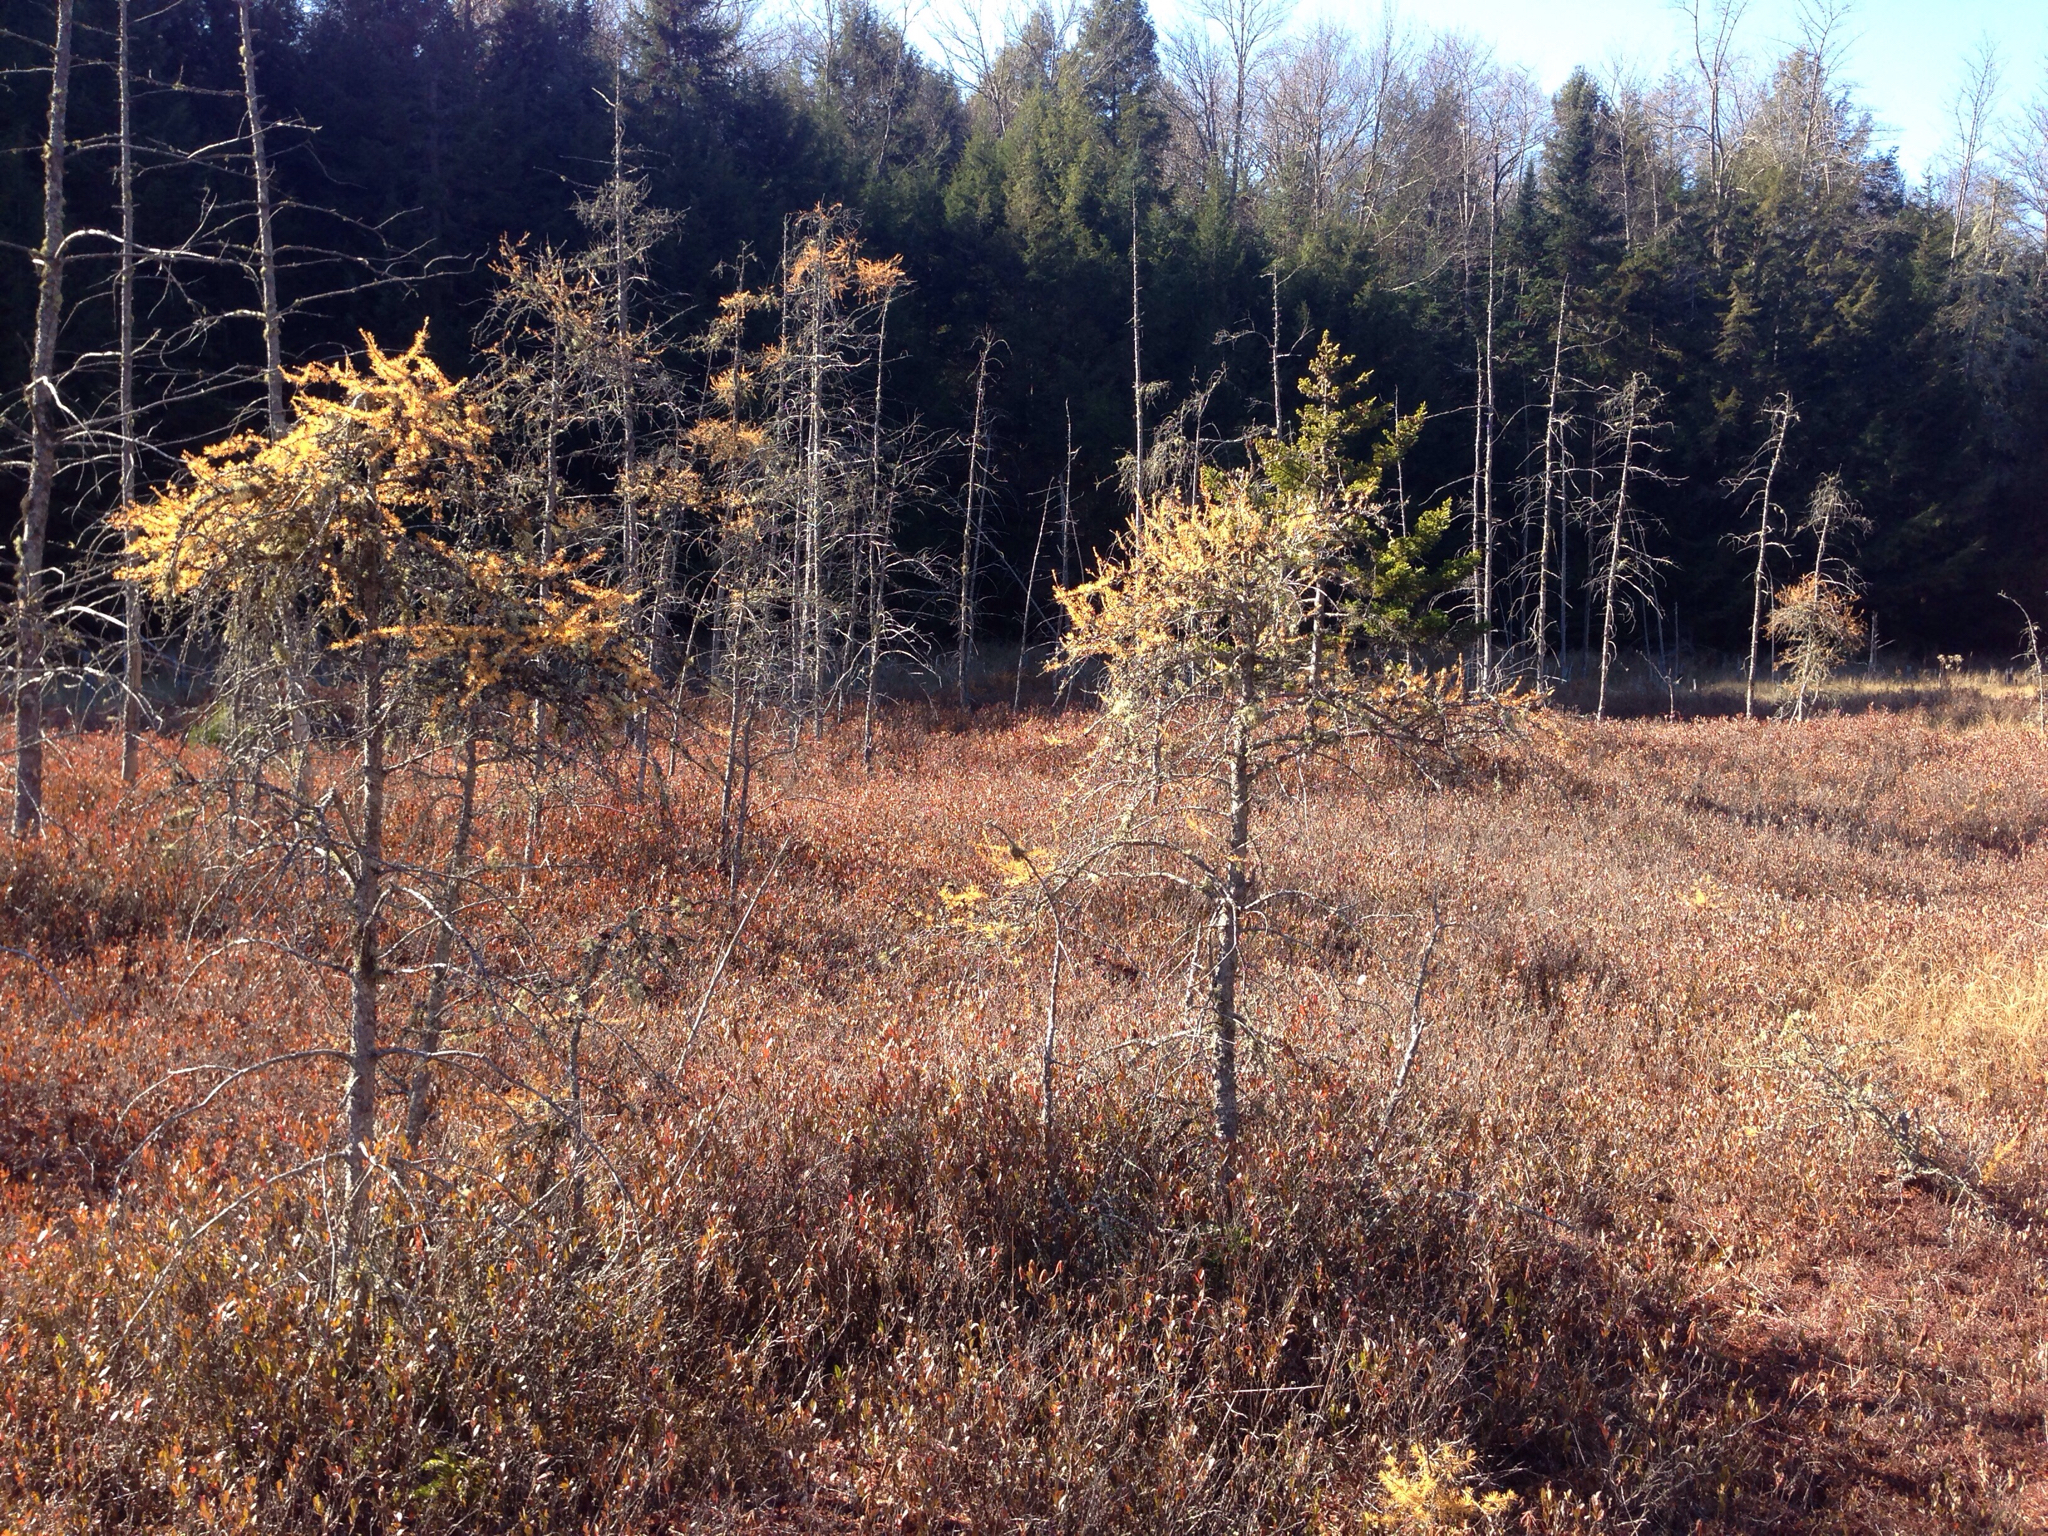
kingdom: Plantae
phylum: Tracheophyta
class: Pinopsida
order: Pinales
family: Pinaceae
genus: Larix
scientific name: Larix laricina
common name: American larch
